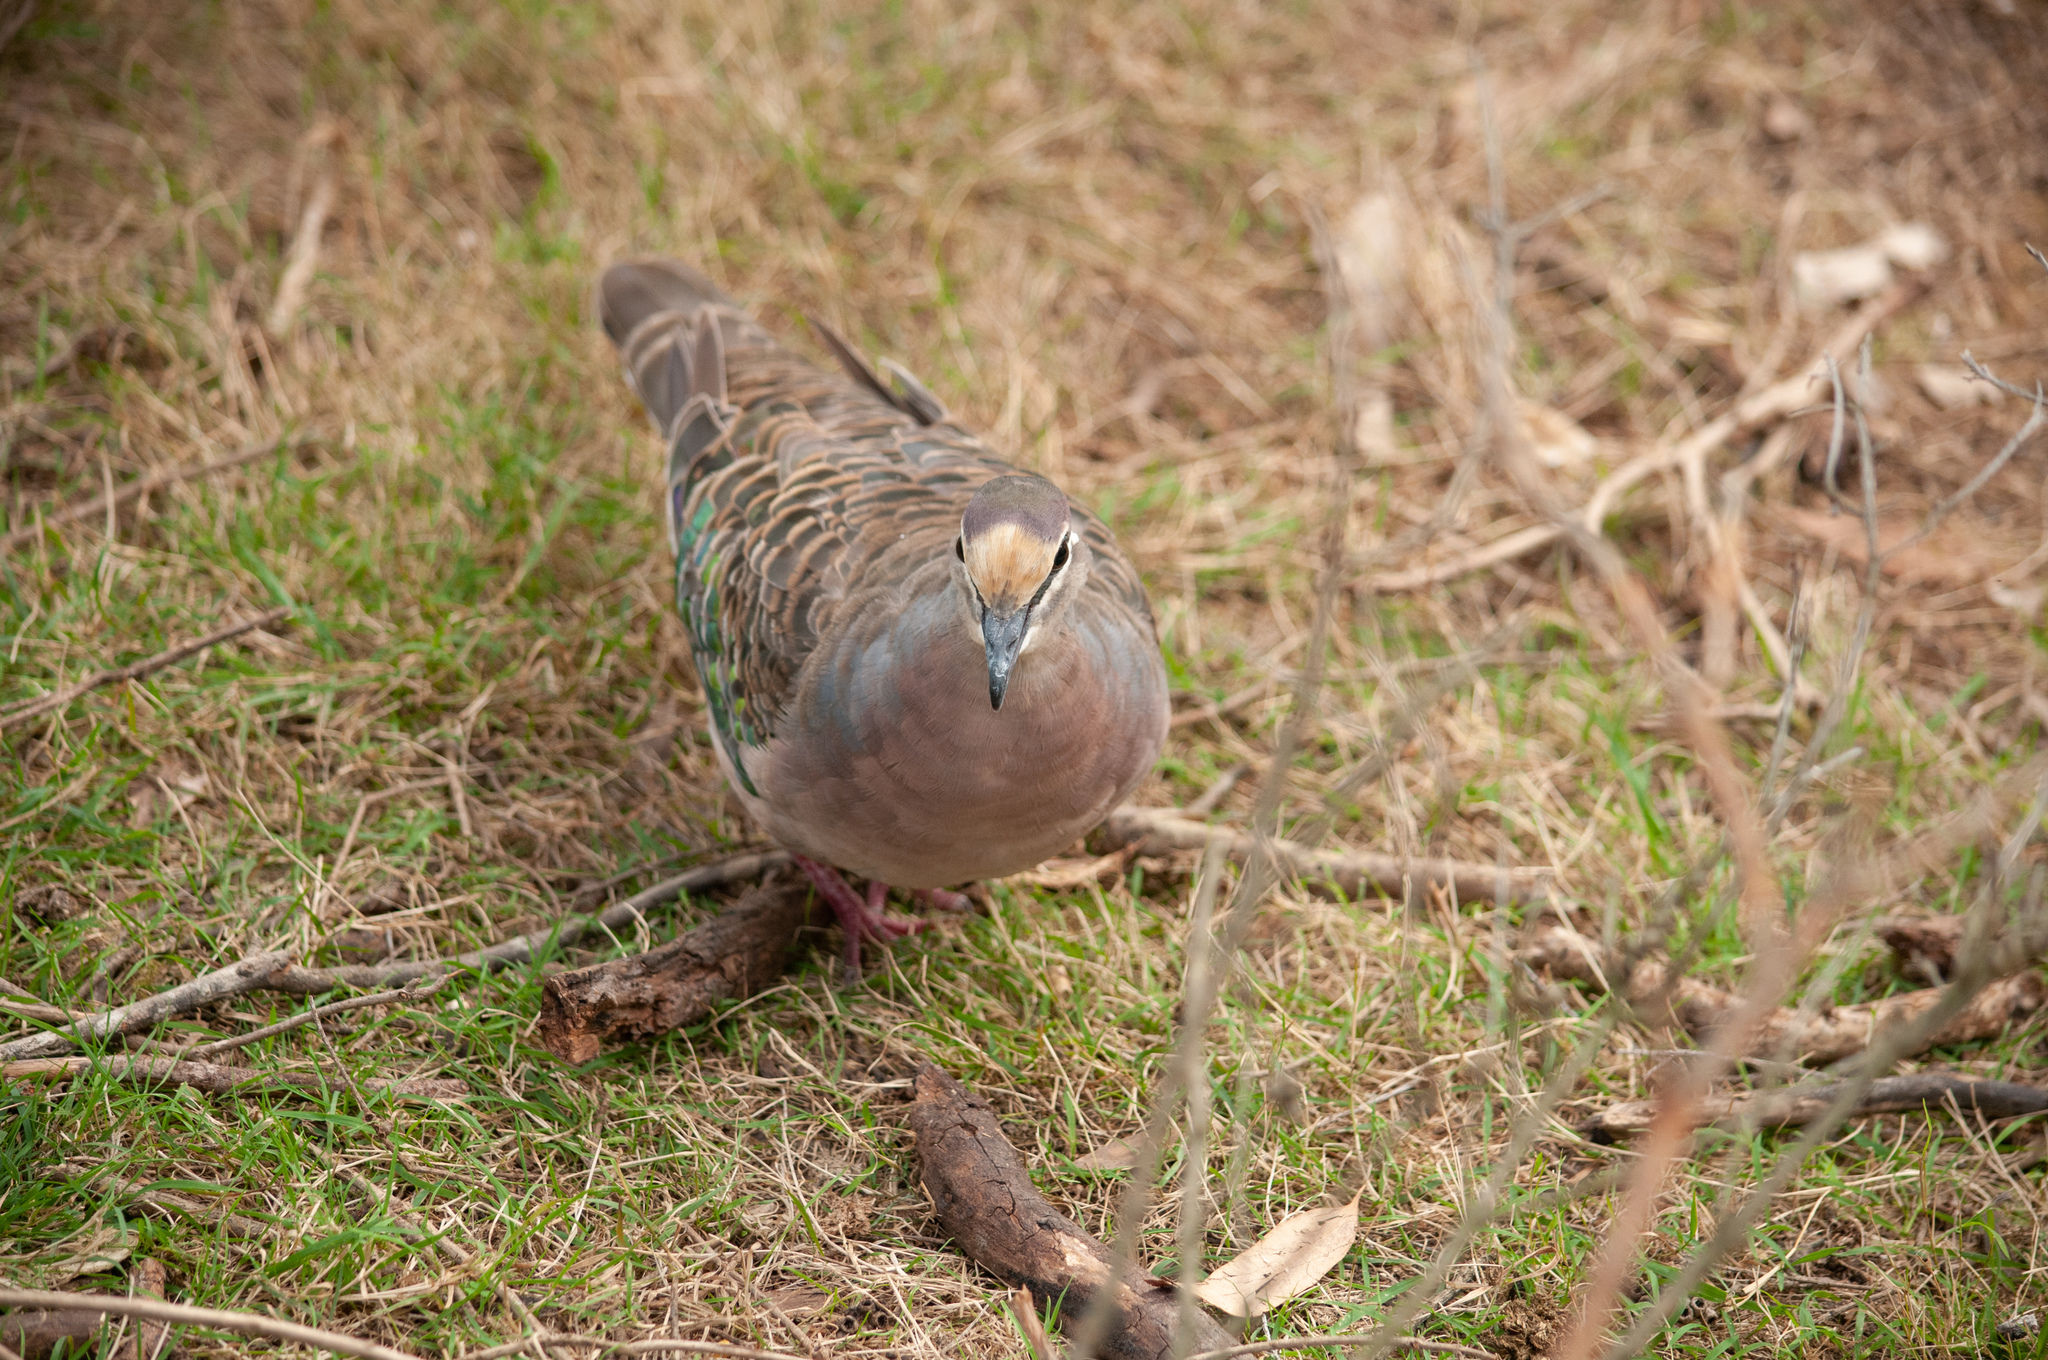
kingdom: Animalia
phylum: Chordata
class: Aves
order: Columbiformes
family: Columbidae
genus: Phaps
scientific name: Phaps chalcoptera
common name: Common bronzewing
